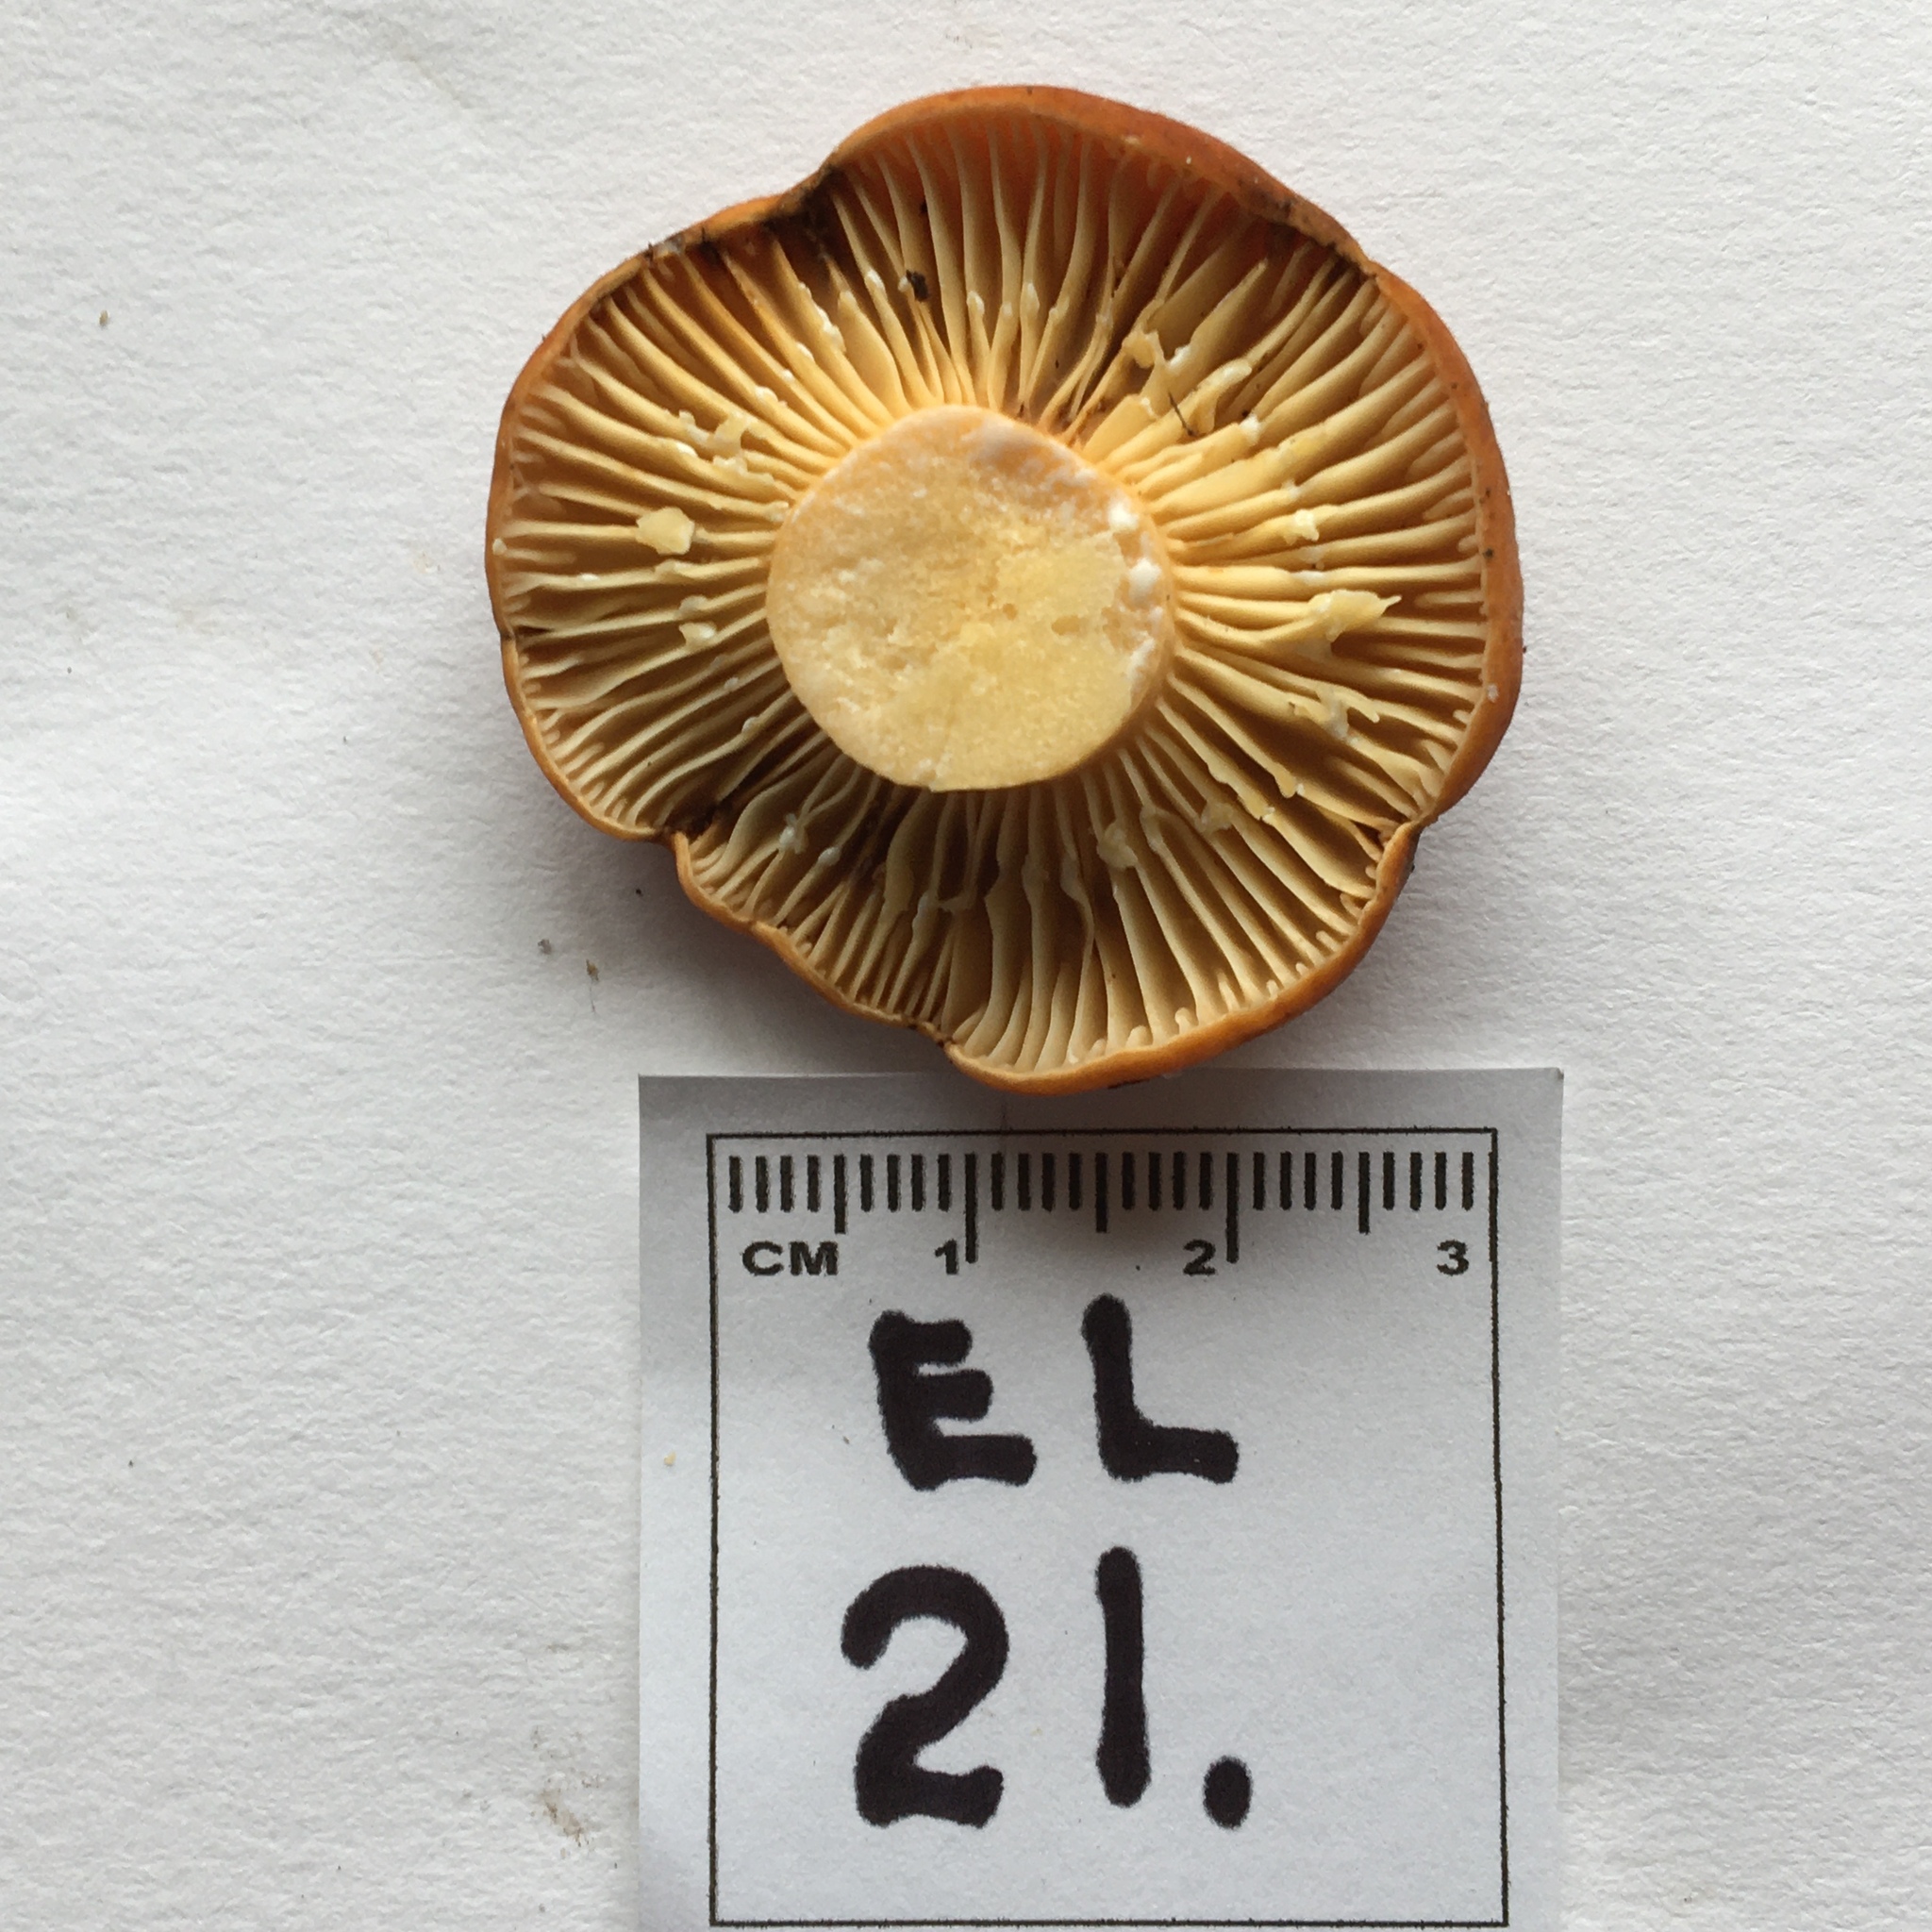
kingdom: Fungi
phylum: Basidiomycota
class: Agaricomycetes
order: Russulales
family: Russulaceae
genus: Lactifluus
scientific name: Lactifluus clarkeae
